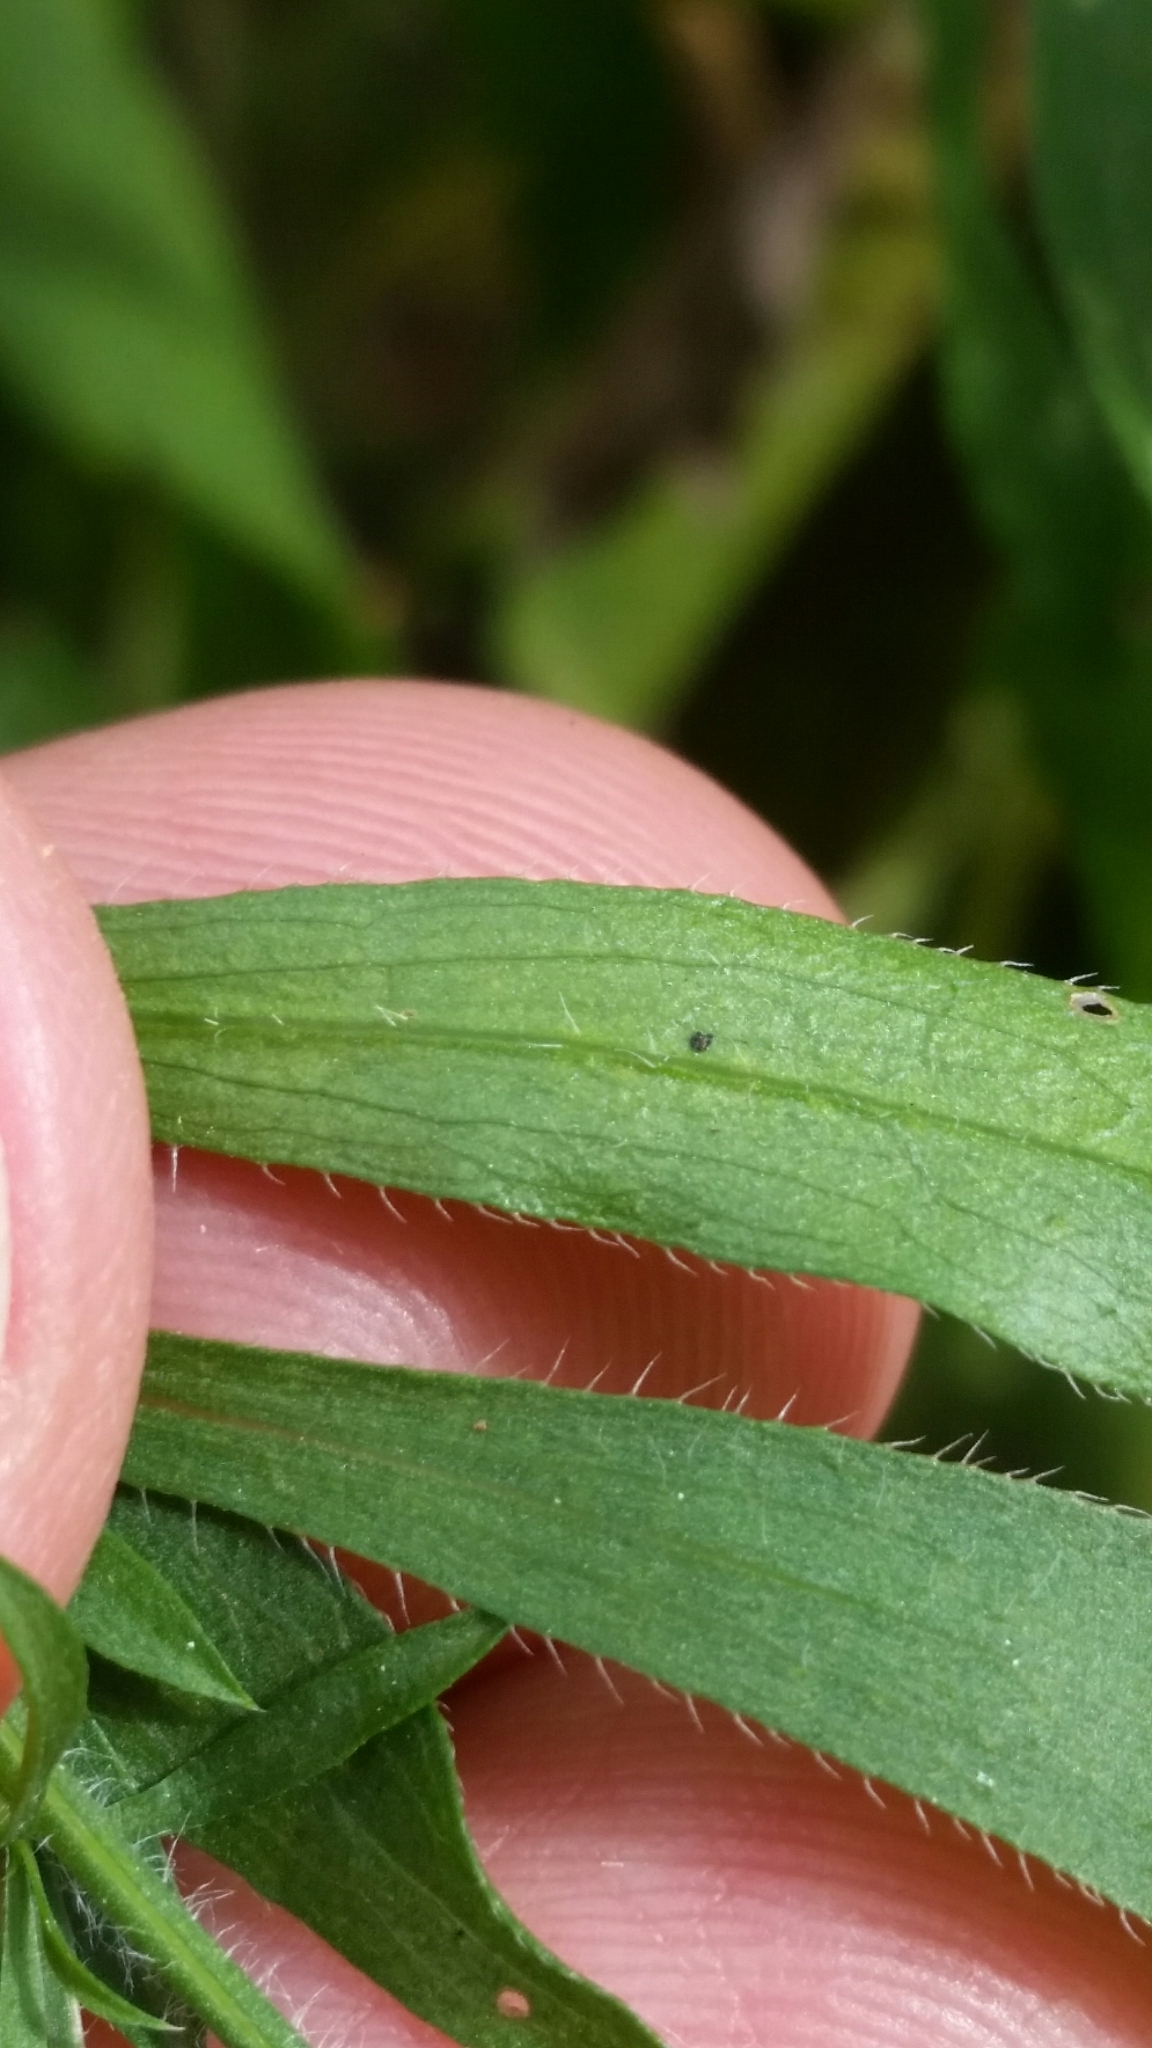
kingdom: Plantae
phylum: Tracheophyta
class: Magnoliopsida
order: Asterales
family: Asteraceae
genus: Symphyotrichum
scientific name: Symphyotrichum pilosum
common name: Awl aster
